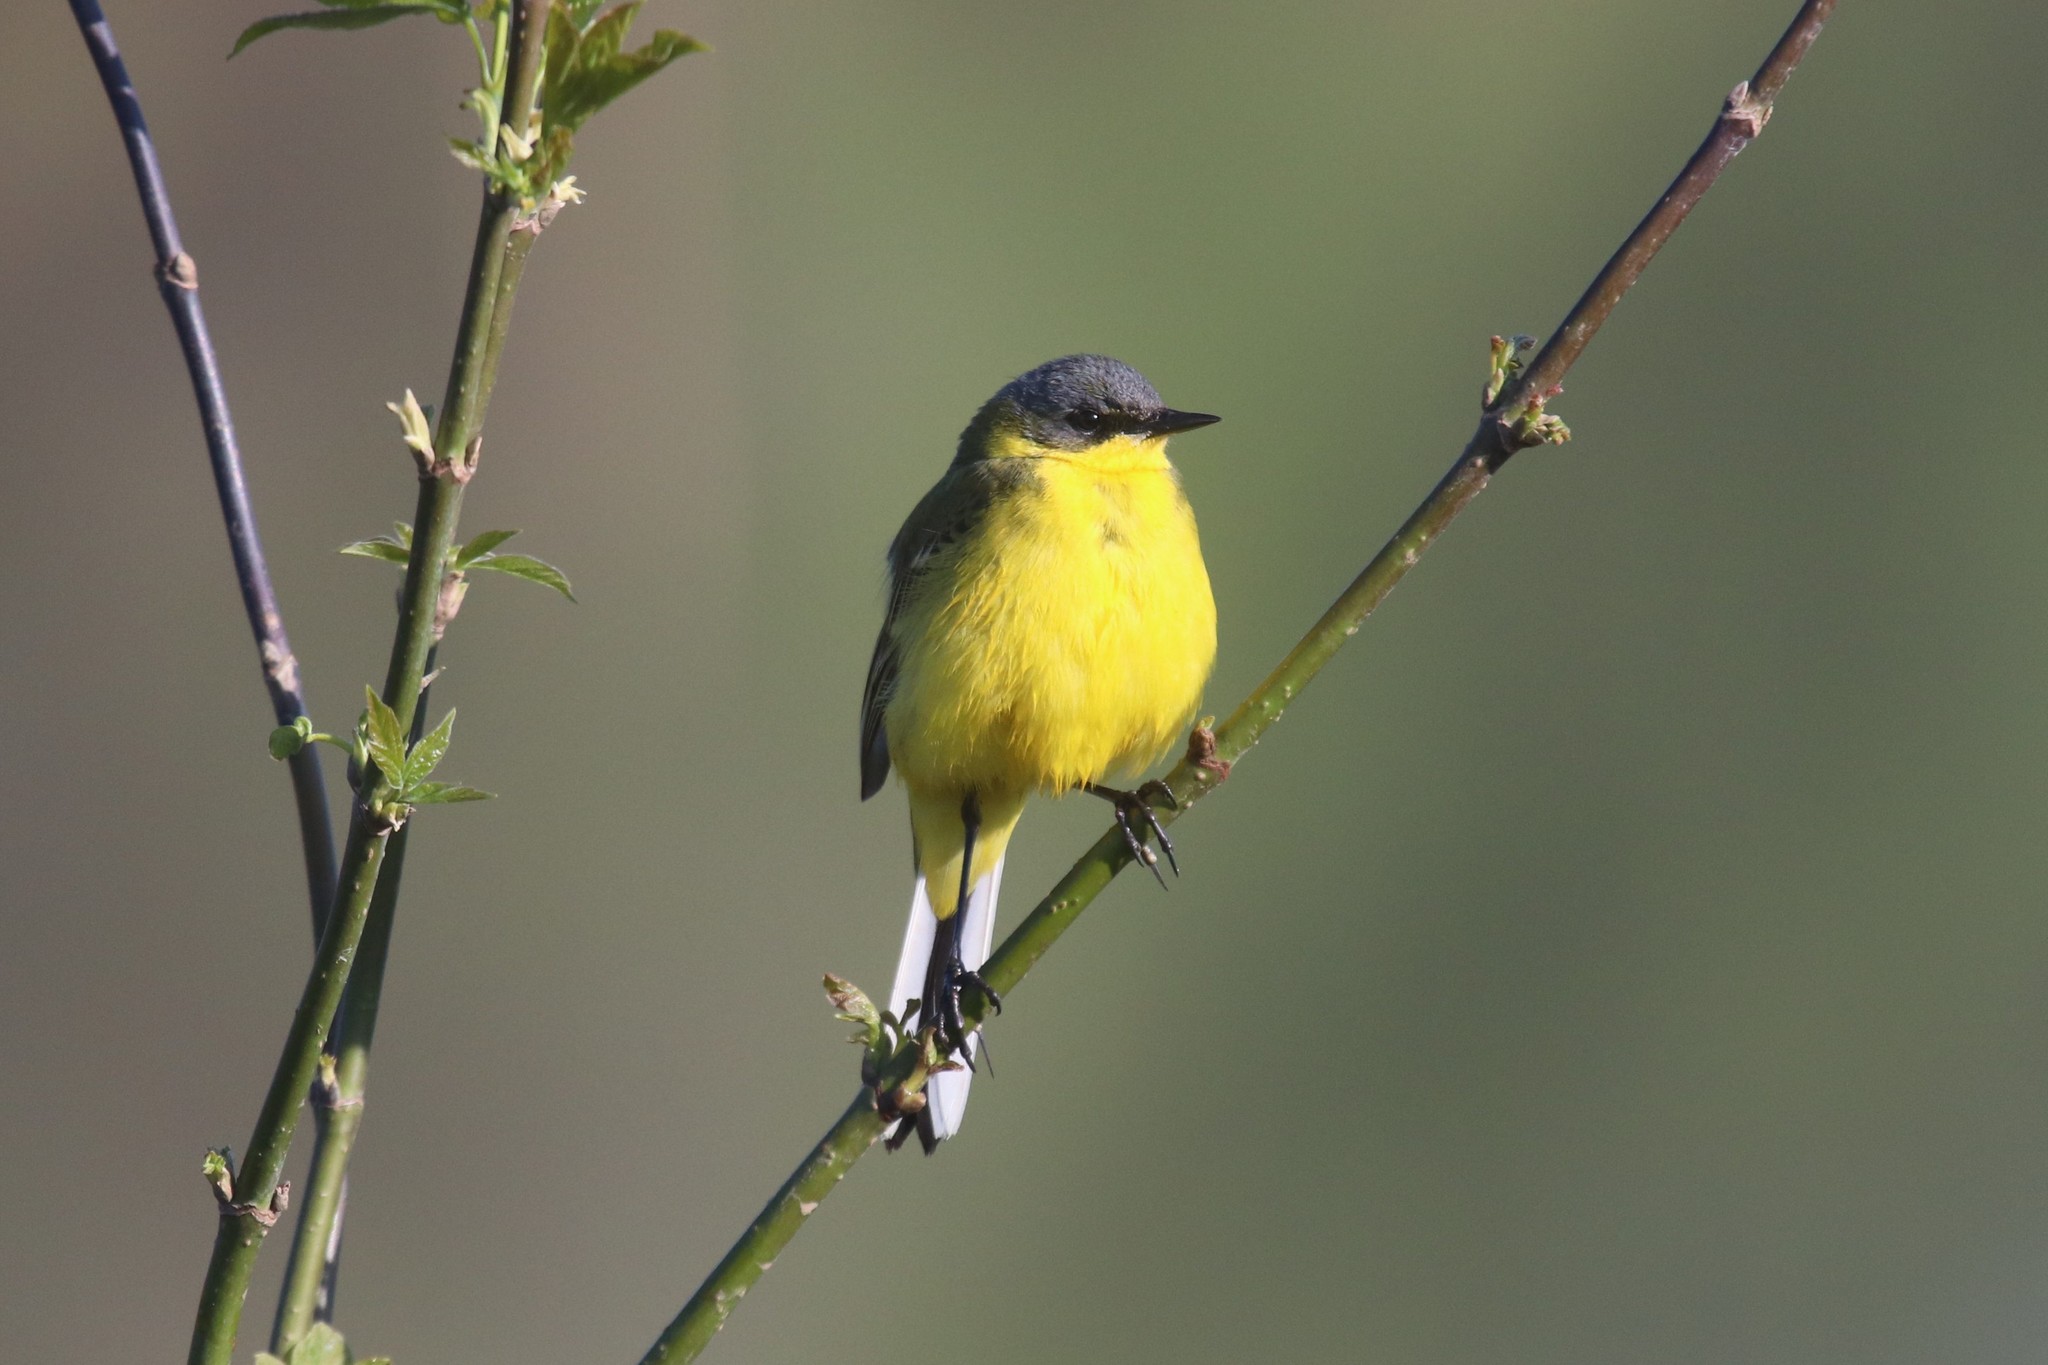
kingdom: Animalia
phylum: Chordata
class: Aves
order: Passeriformes
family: Motacillidae
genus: Motacilla
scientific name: Motacilla flava
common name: Western yellow wagtail
